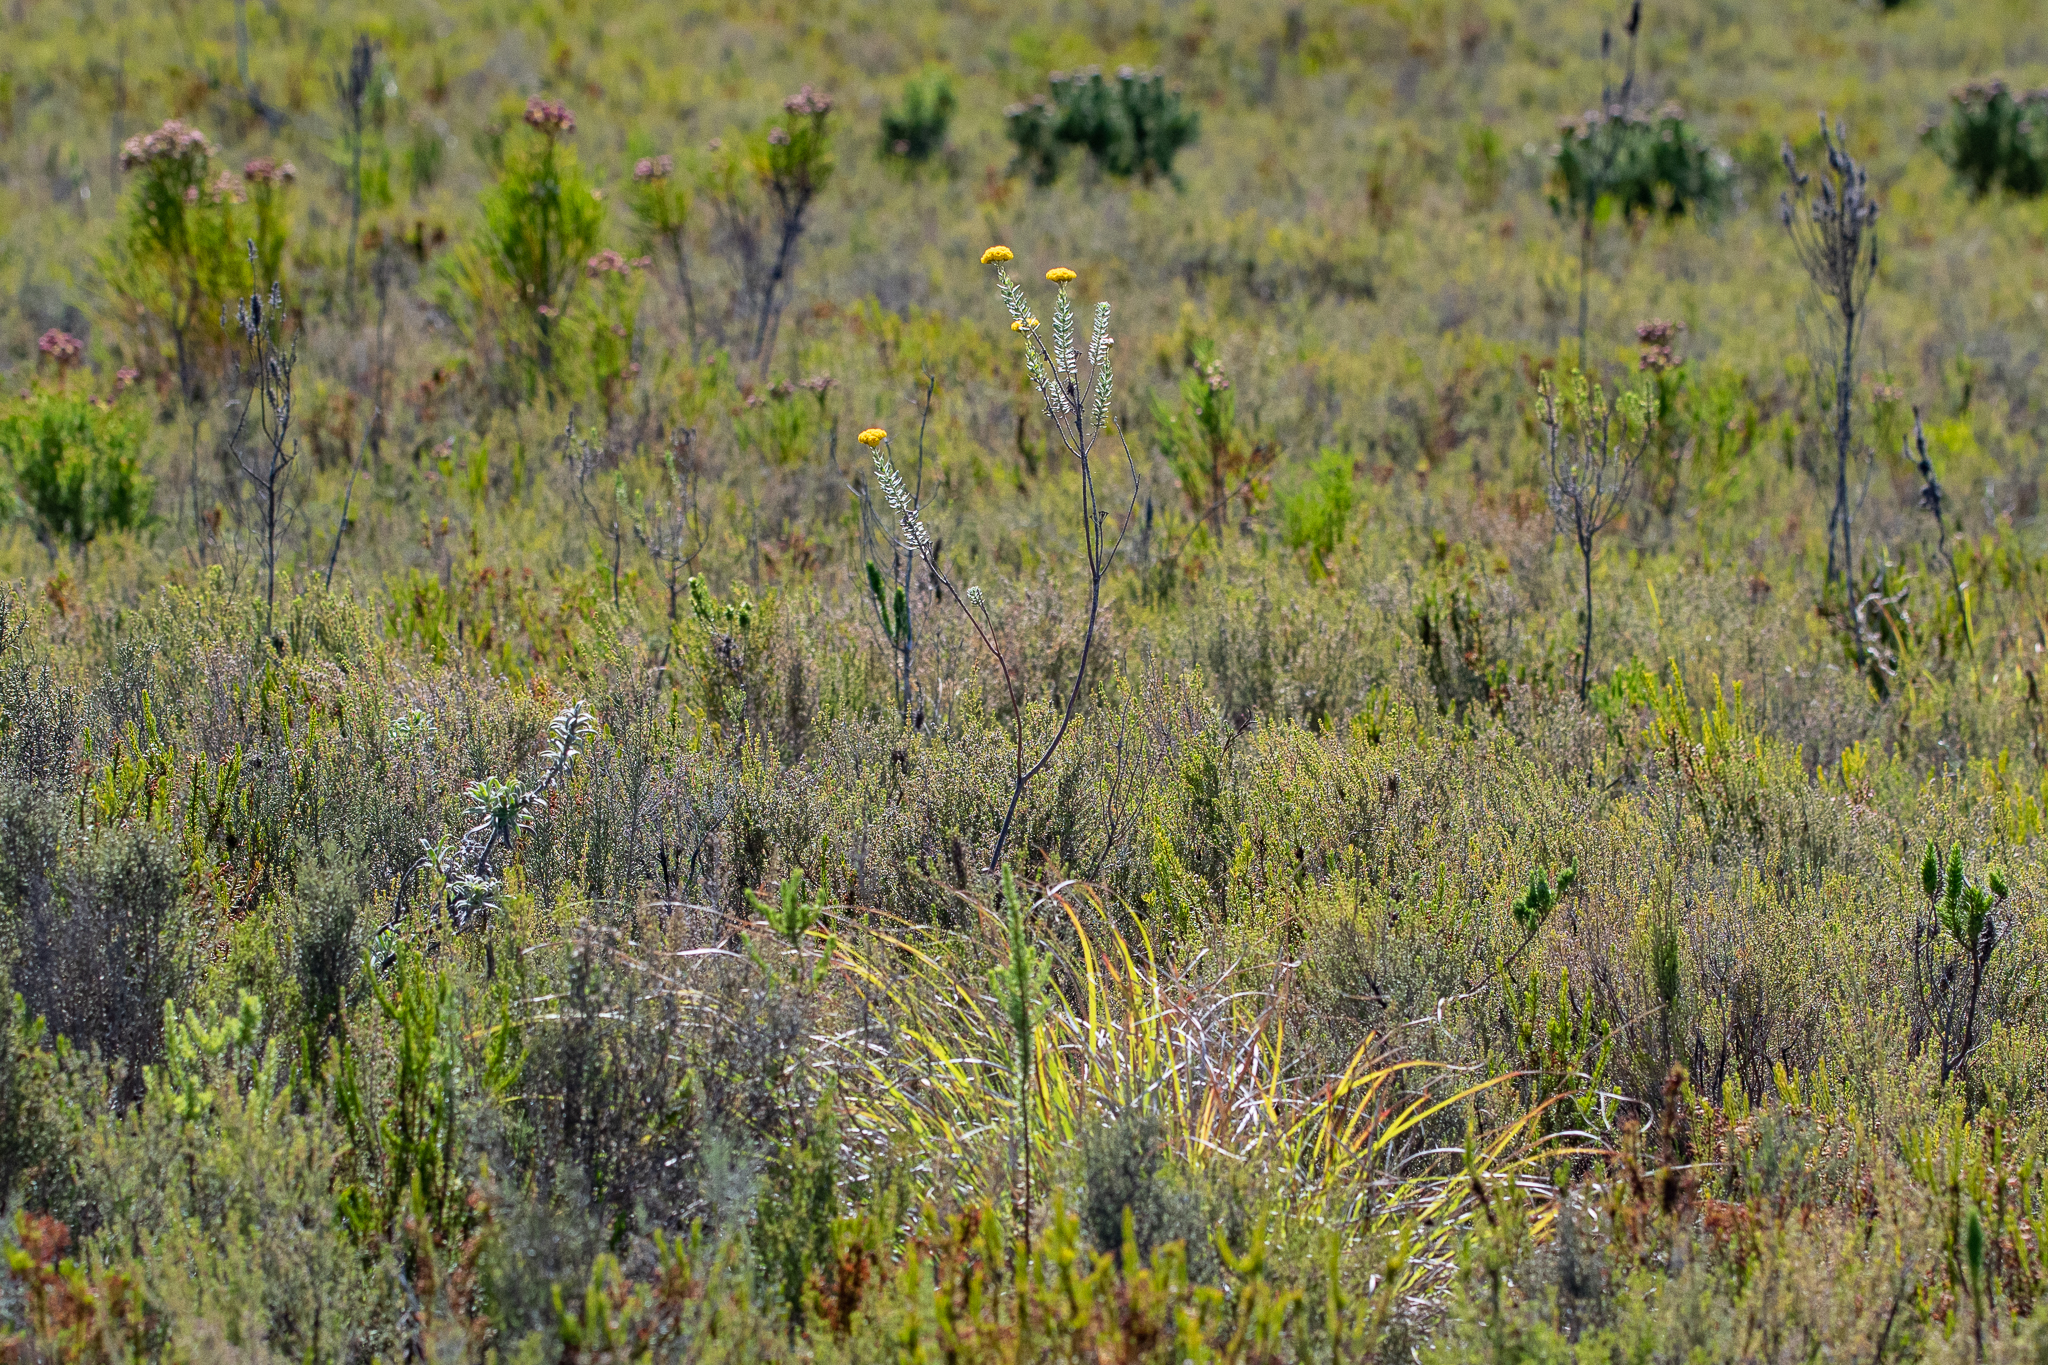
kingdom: Plantae
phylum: Tracheophyta
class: Magnoliopsida
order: Asterales
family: Asteraceae
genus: Athanasia
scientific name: Athanasia trifurcata
